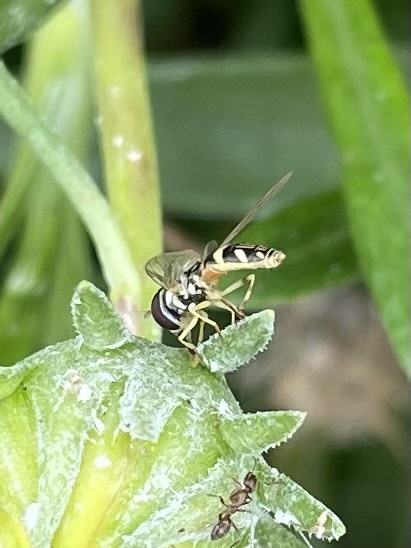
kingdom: Animalia
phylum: Arthropoda
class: Insecta
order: Diptera
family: Syrphidae
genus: Allograpta
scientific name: Allograpta exotica
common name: Syrphid fly
